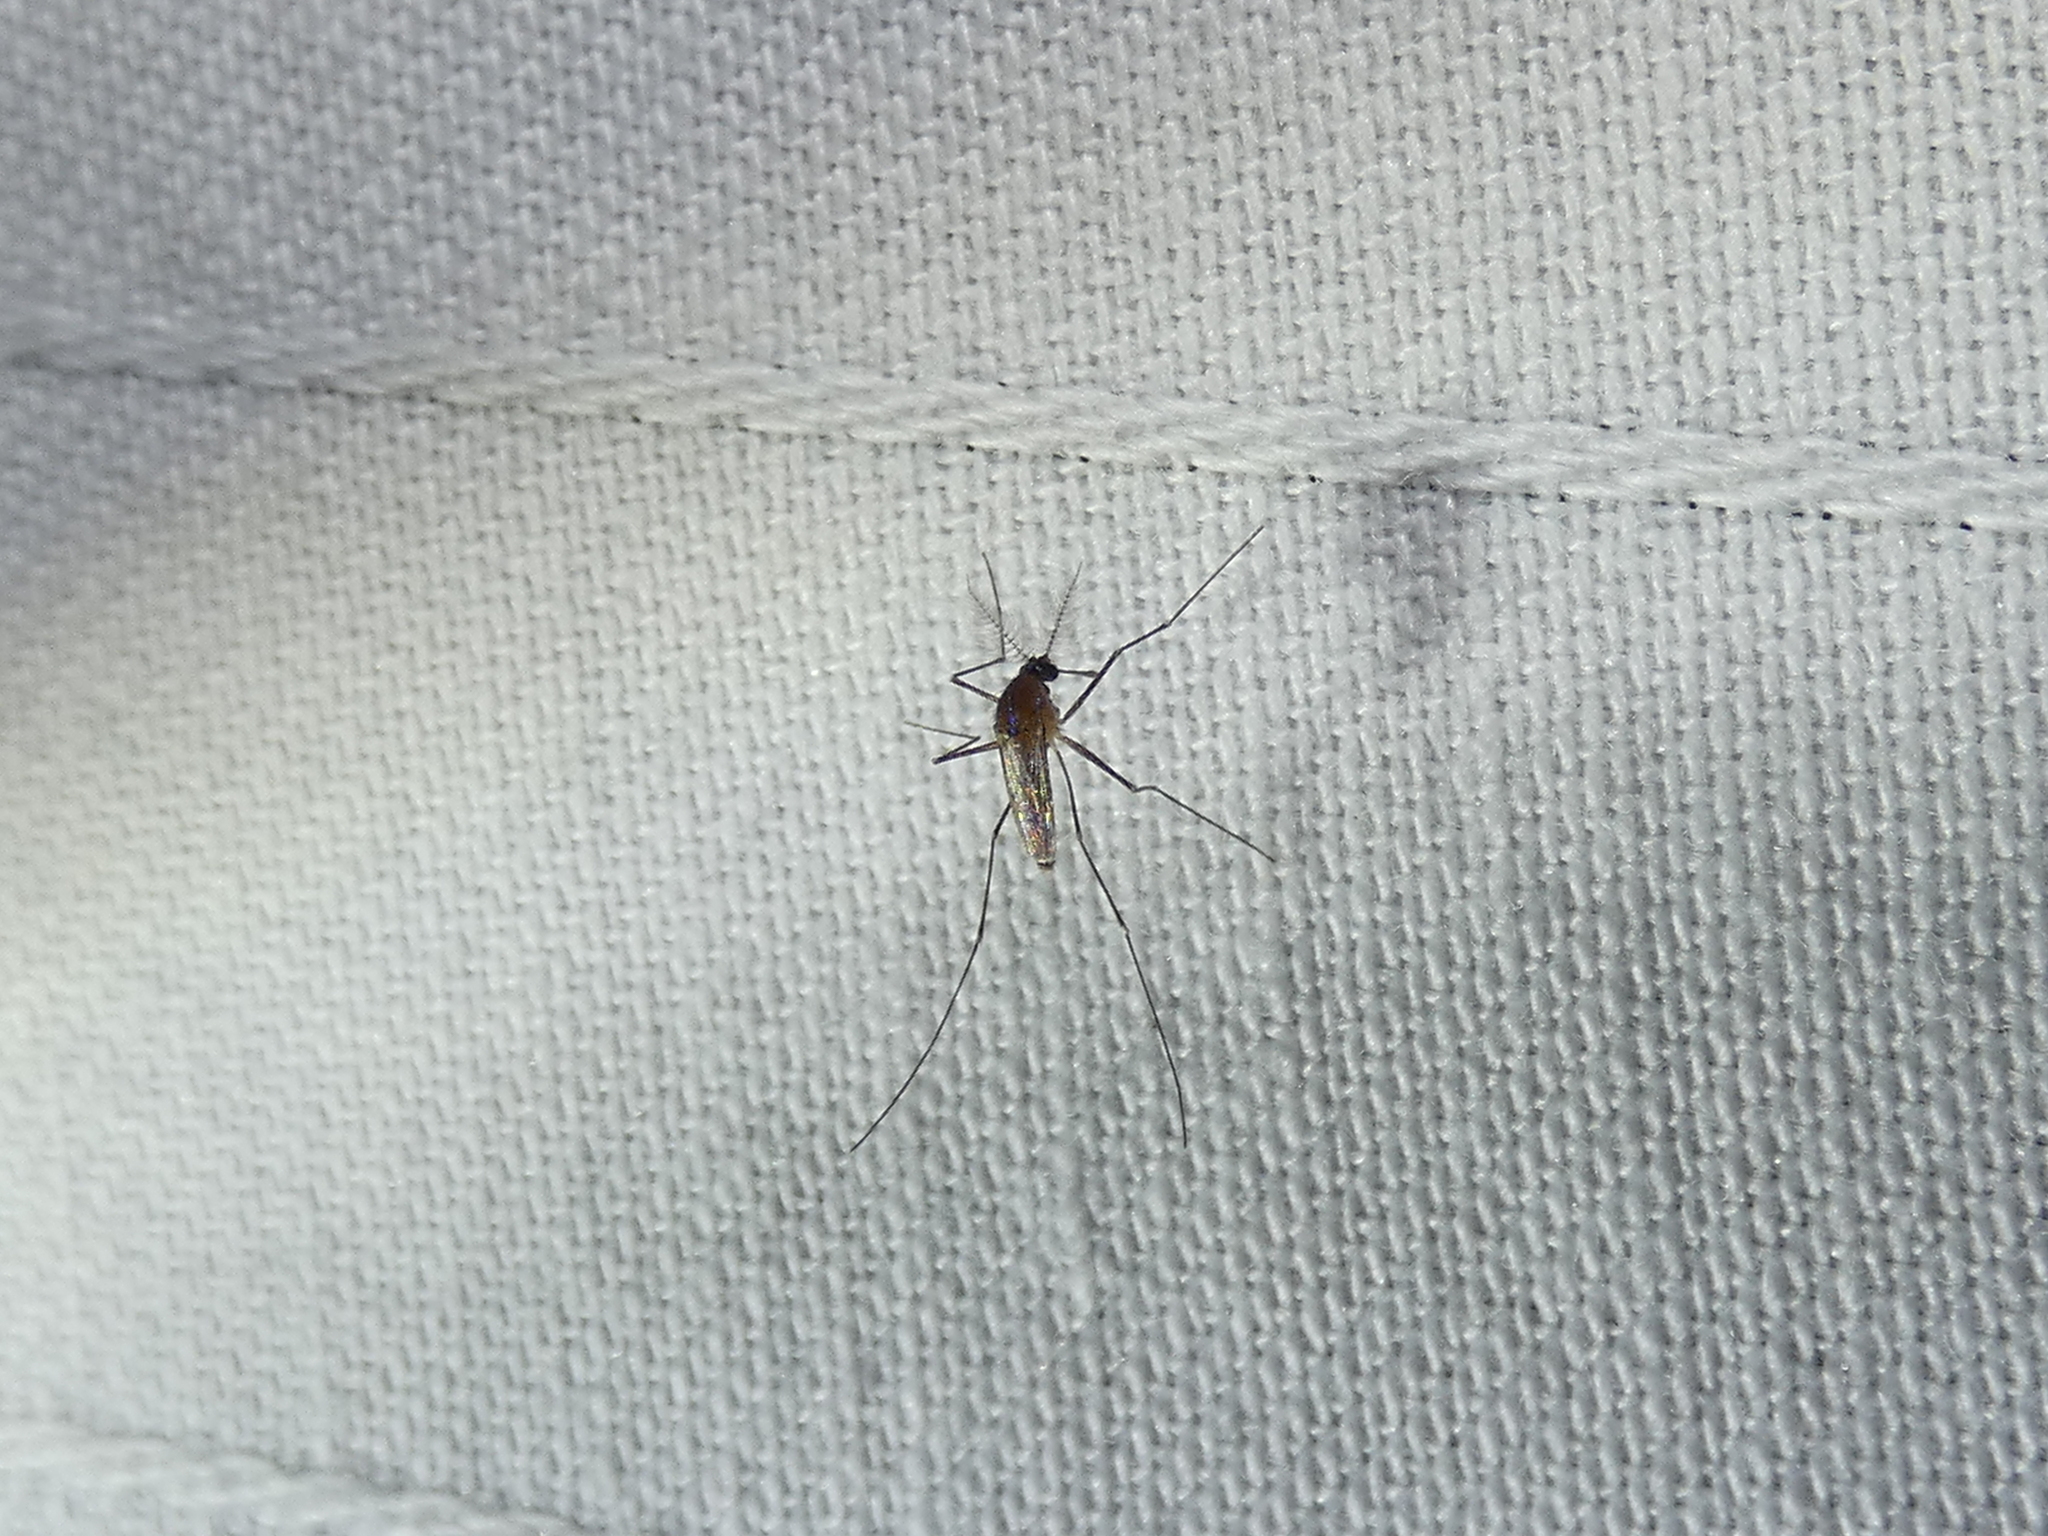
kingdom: Animalia
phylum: Arthropoda
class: Insecta
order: Diptera
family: Culicidae
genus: Uranotaenia
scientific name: Uranotaenia sapphirina
